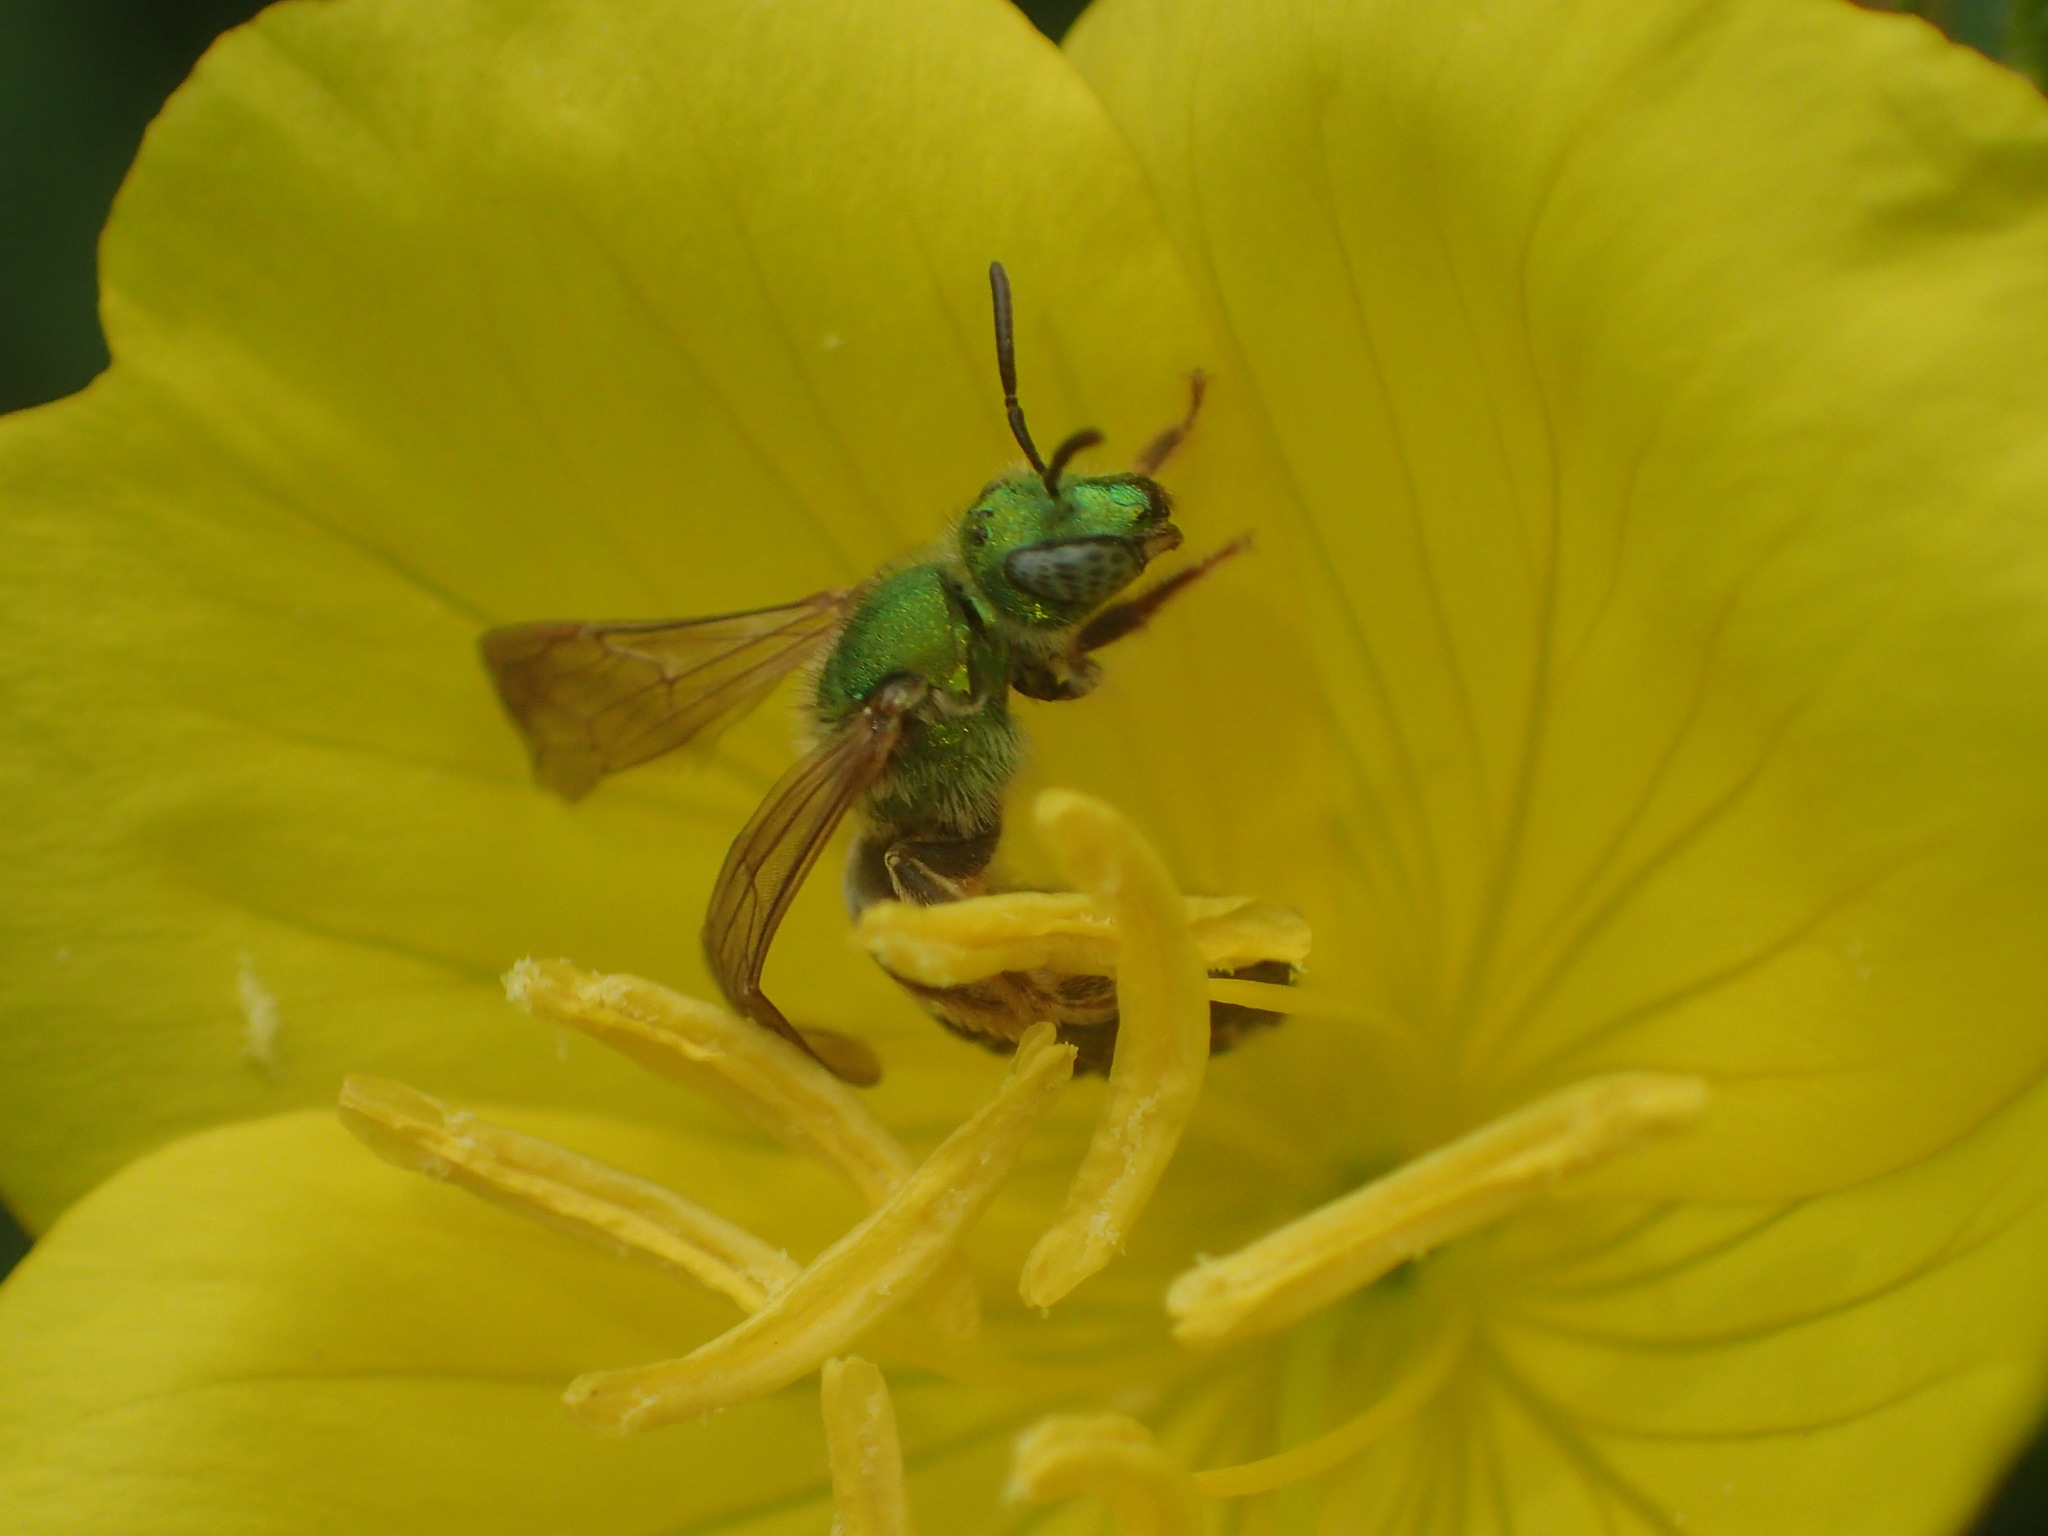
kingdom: Animalia
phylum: Arthropoda
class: Insecta
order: Hymenoptera
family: Halictidae
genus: Agapostemon
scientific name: Agapostemon virescens
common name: Bicolored striped sweat bee
